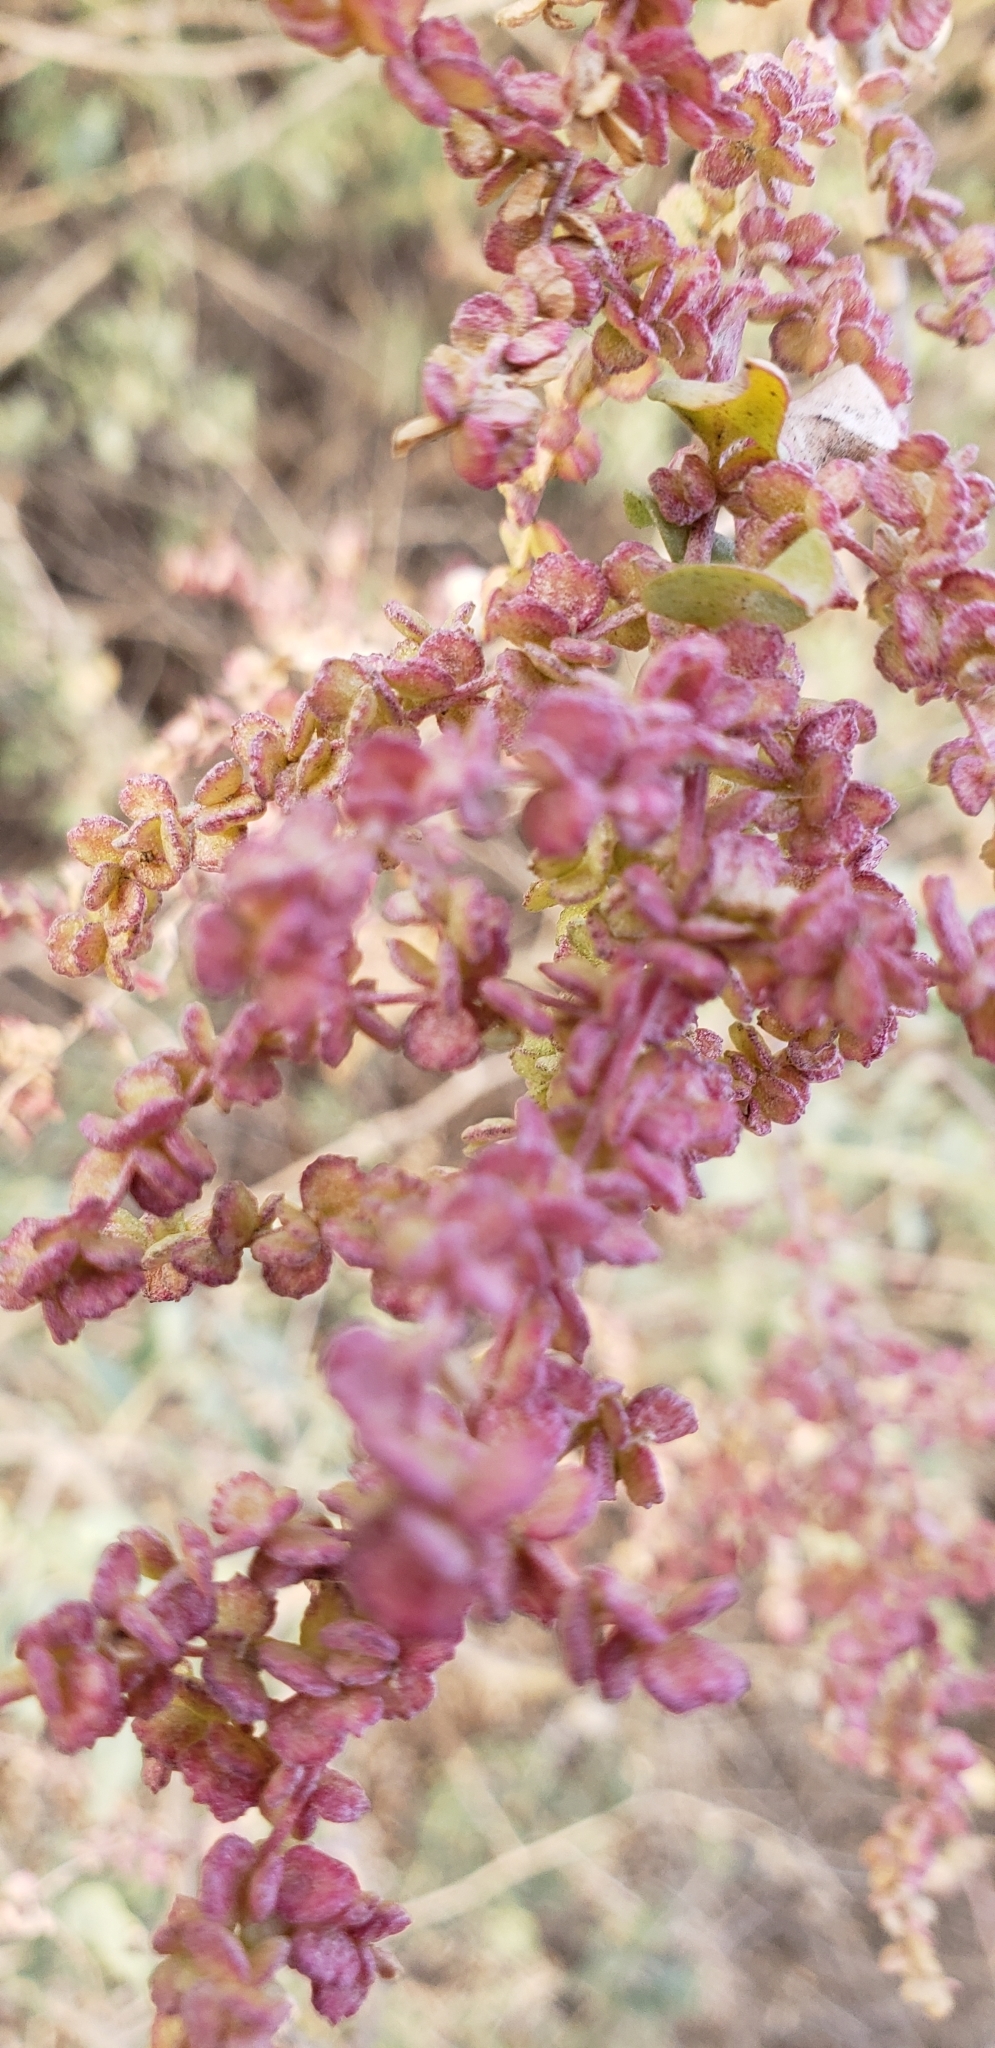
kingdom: Plantae
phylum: Tracheophyta
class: Magnoliopsida
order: Caryophyllales
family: Amaranthaceae
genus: Atriplex
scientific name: Atriplex lentiformis
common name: Big saltbush
